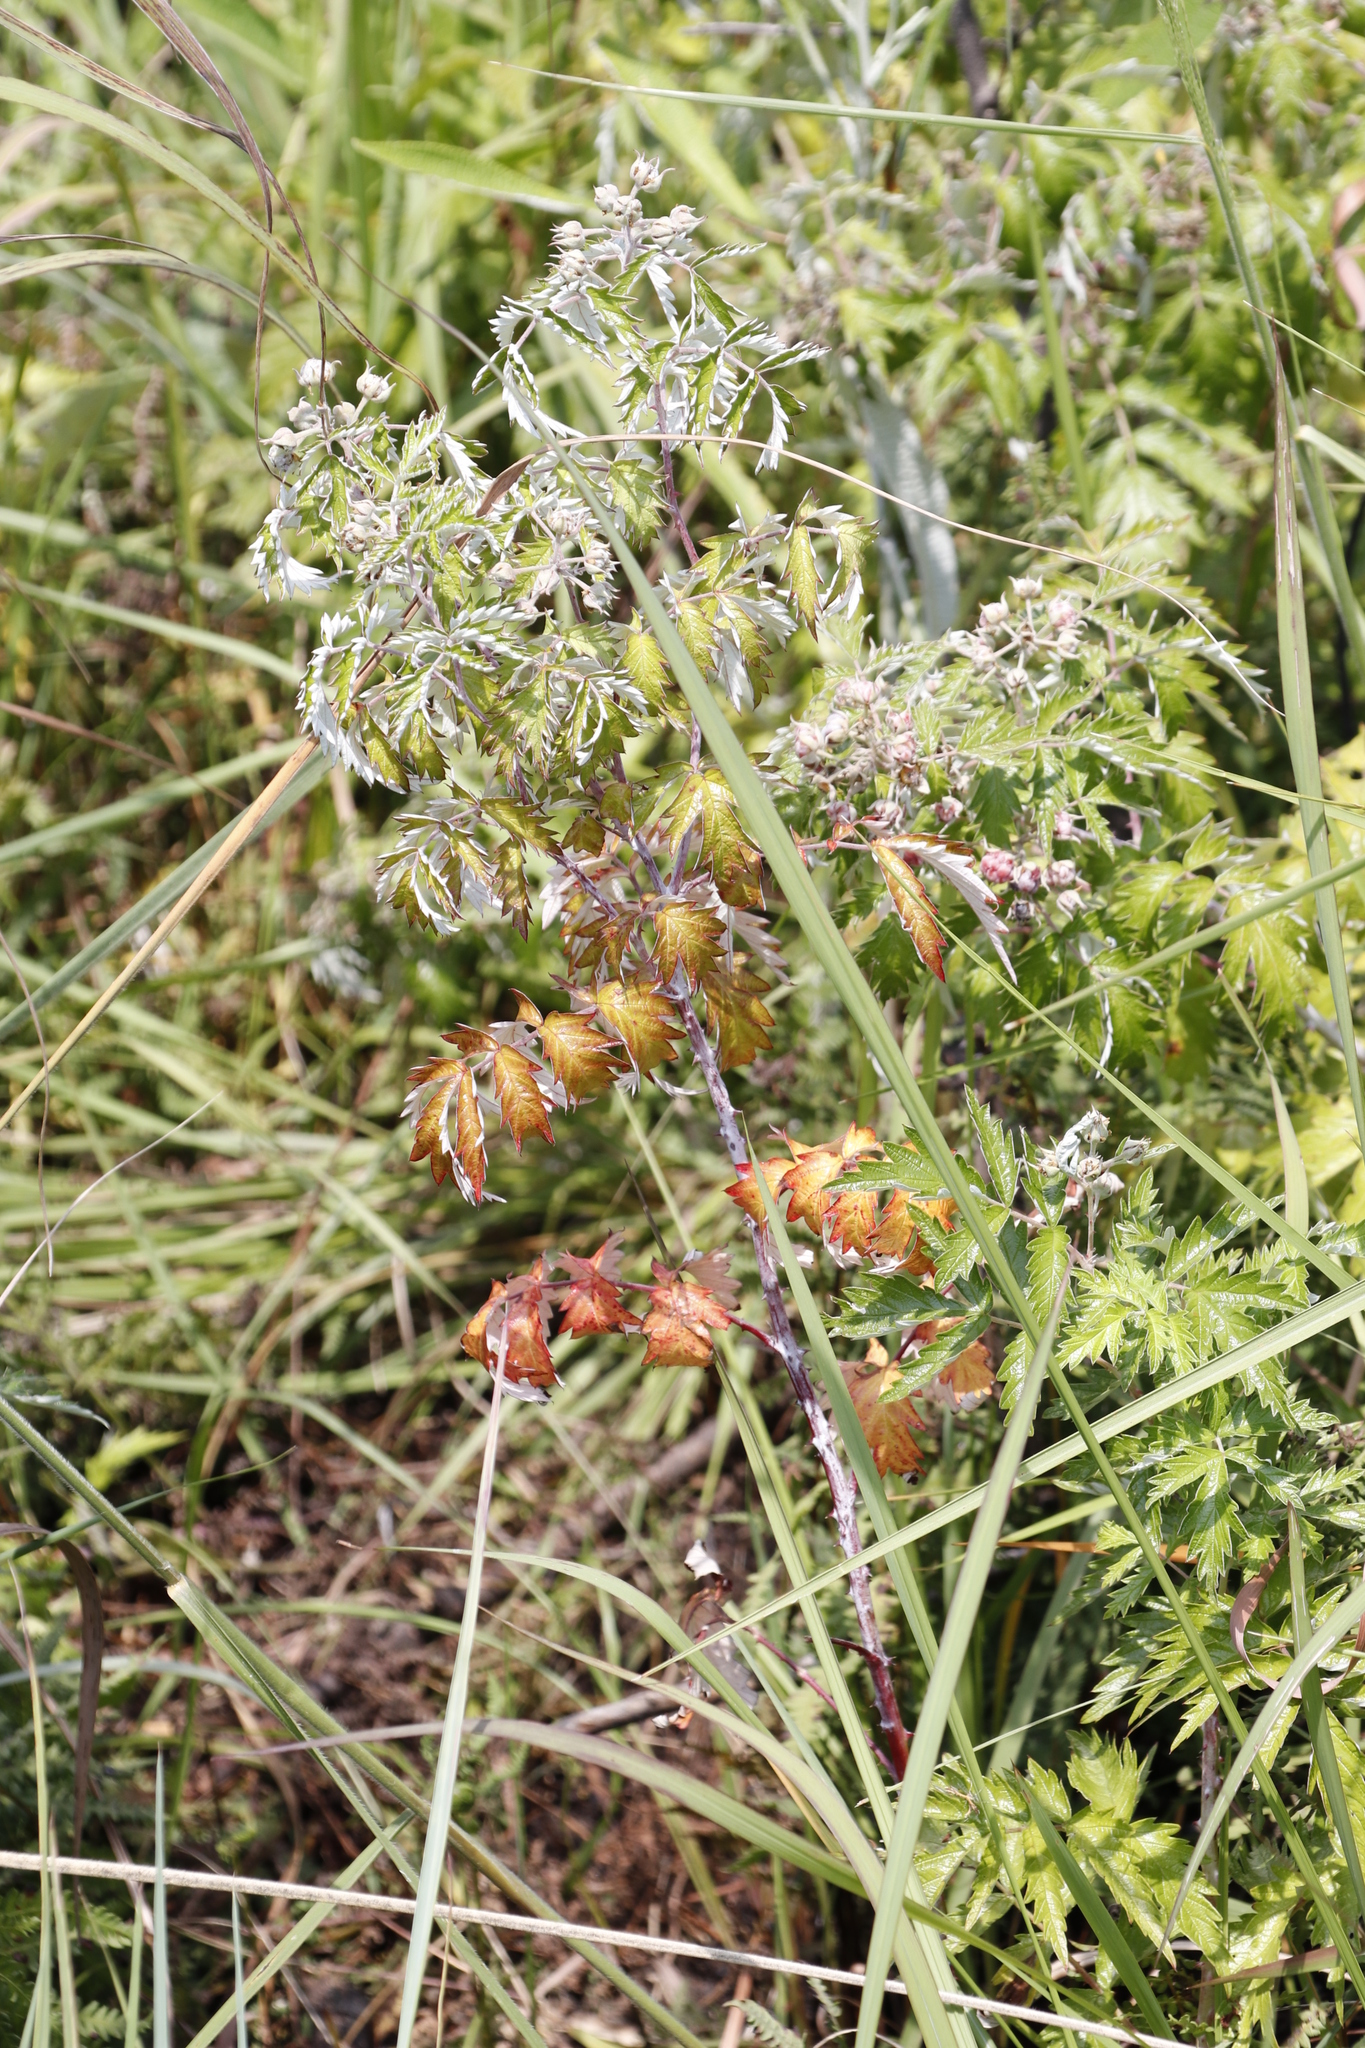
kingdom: Plantae
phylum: Tracheophyta
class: Magnoliopsida
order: Rosales
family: Rosaceae
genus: Rubus
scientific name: Rubus ludwigii
